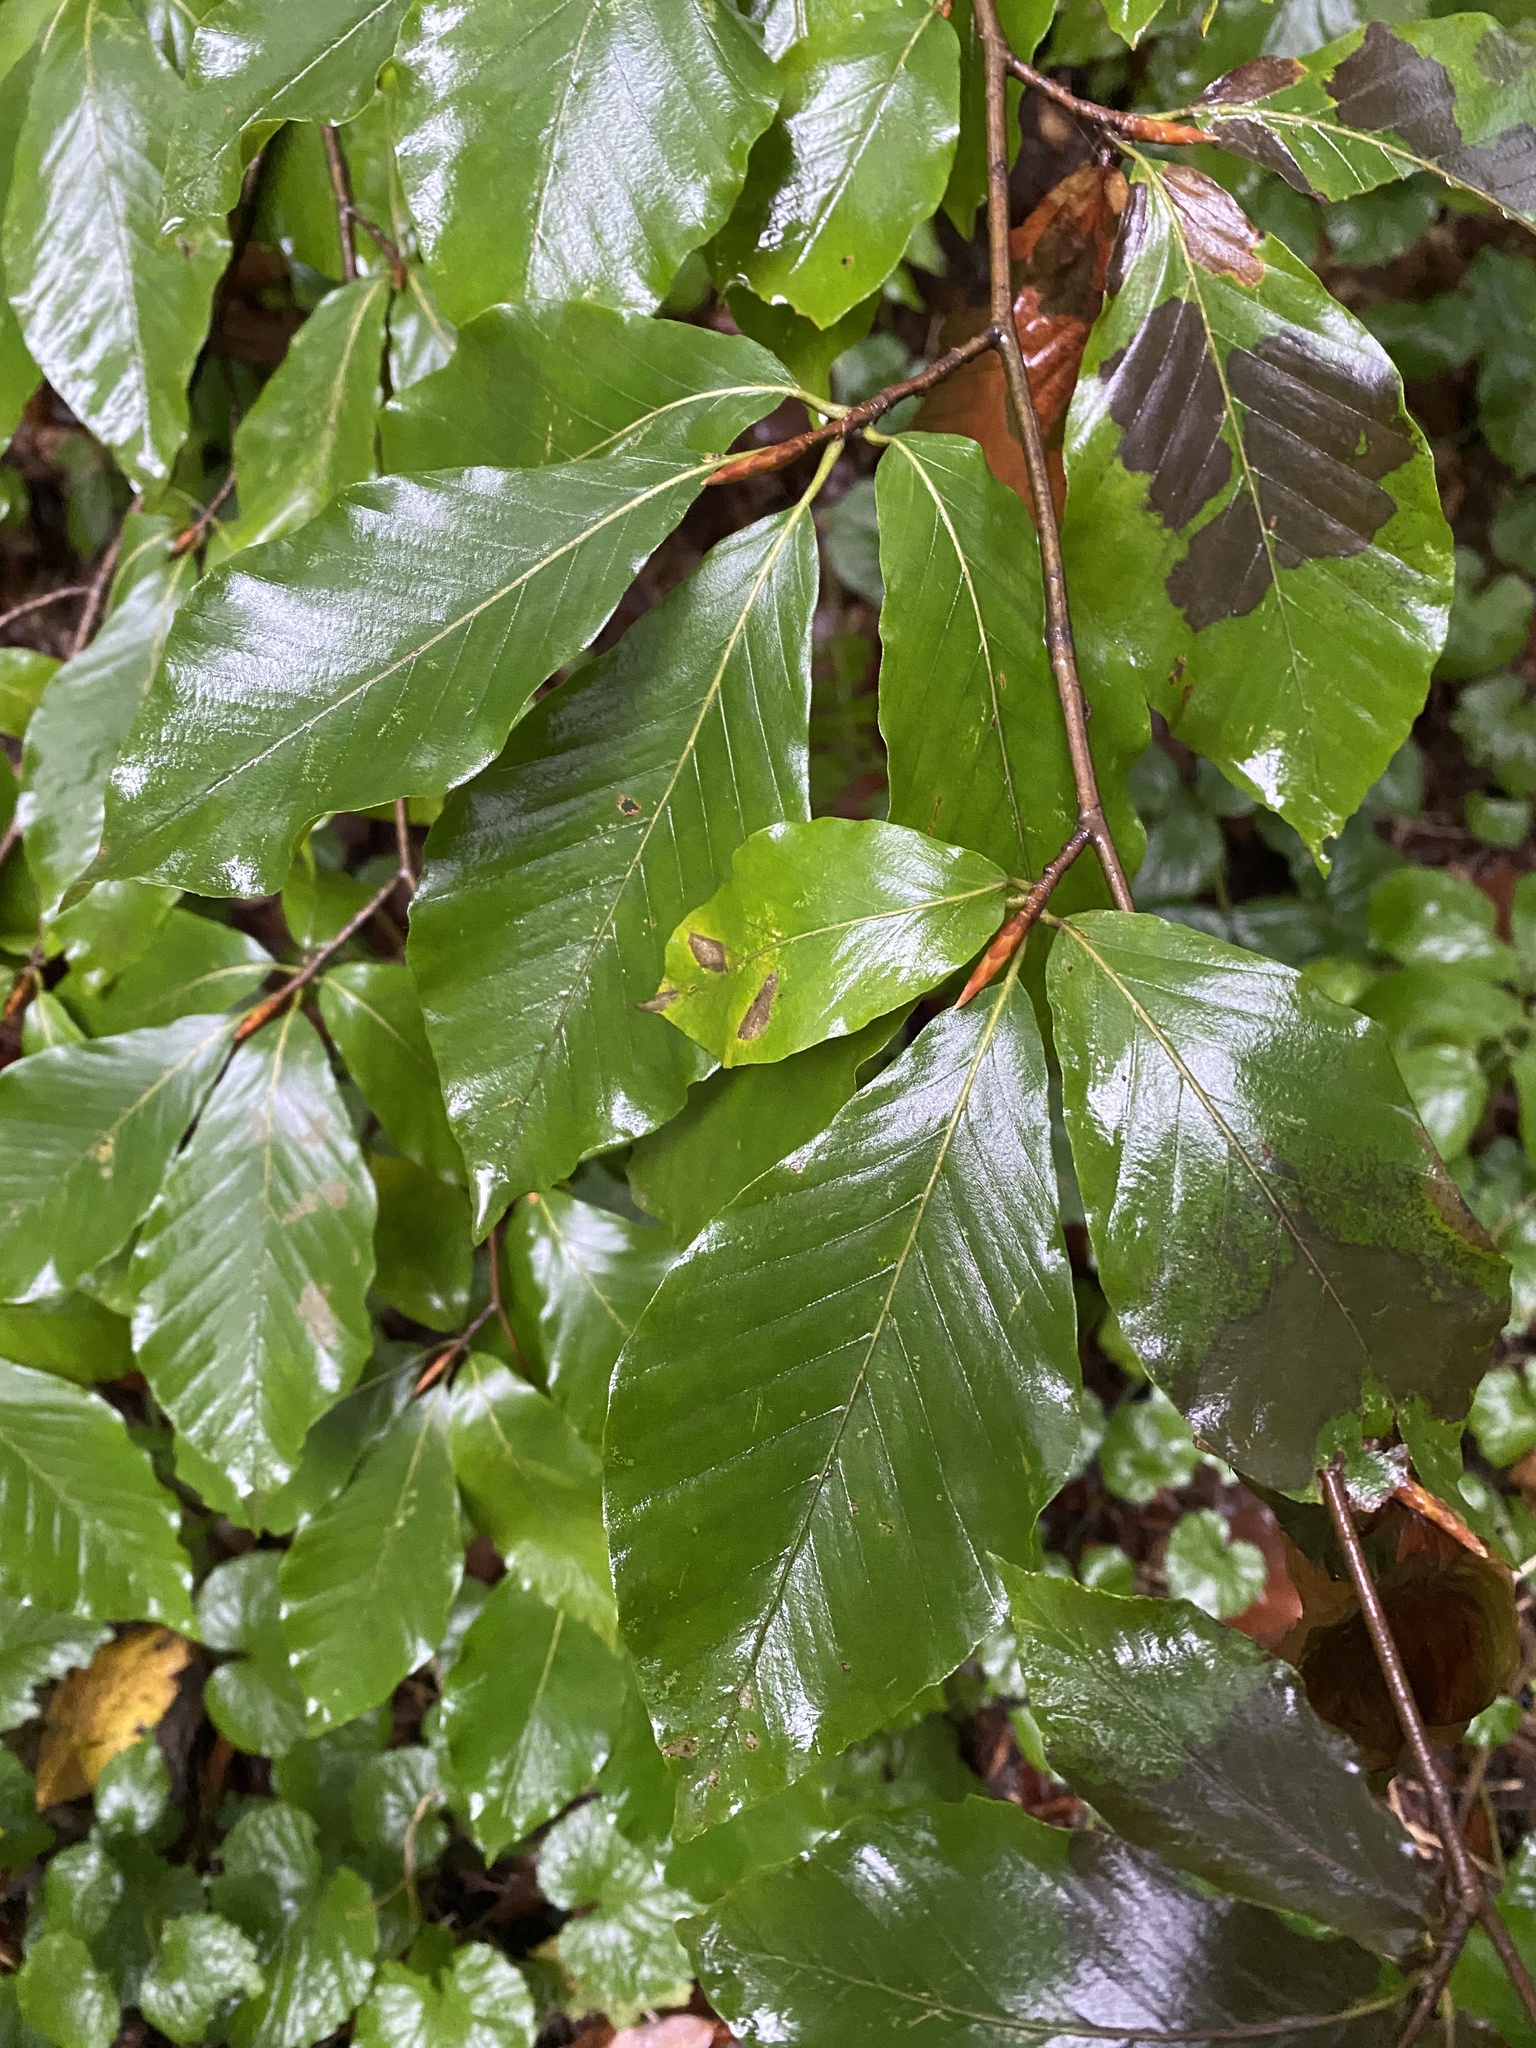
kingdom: Plantae
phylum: Tracheophyta
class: Magnoliopsida
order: Fagales
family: Fagaceae
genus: Fagus
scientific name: Fagus orientalis
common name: Oriental beech
